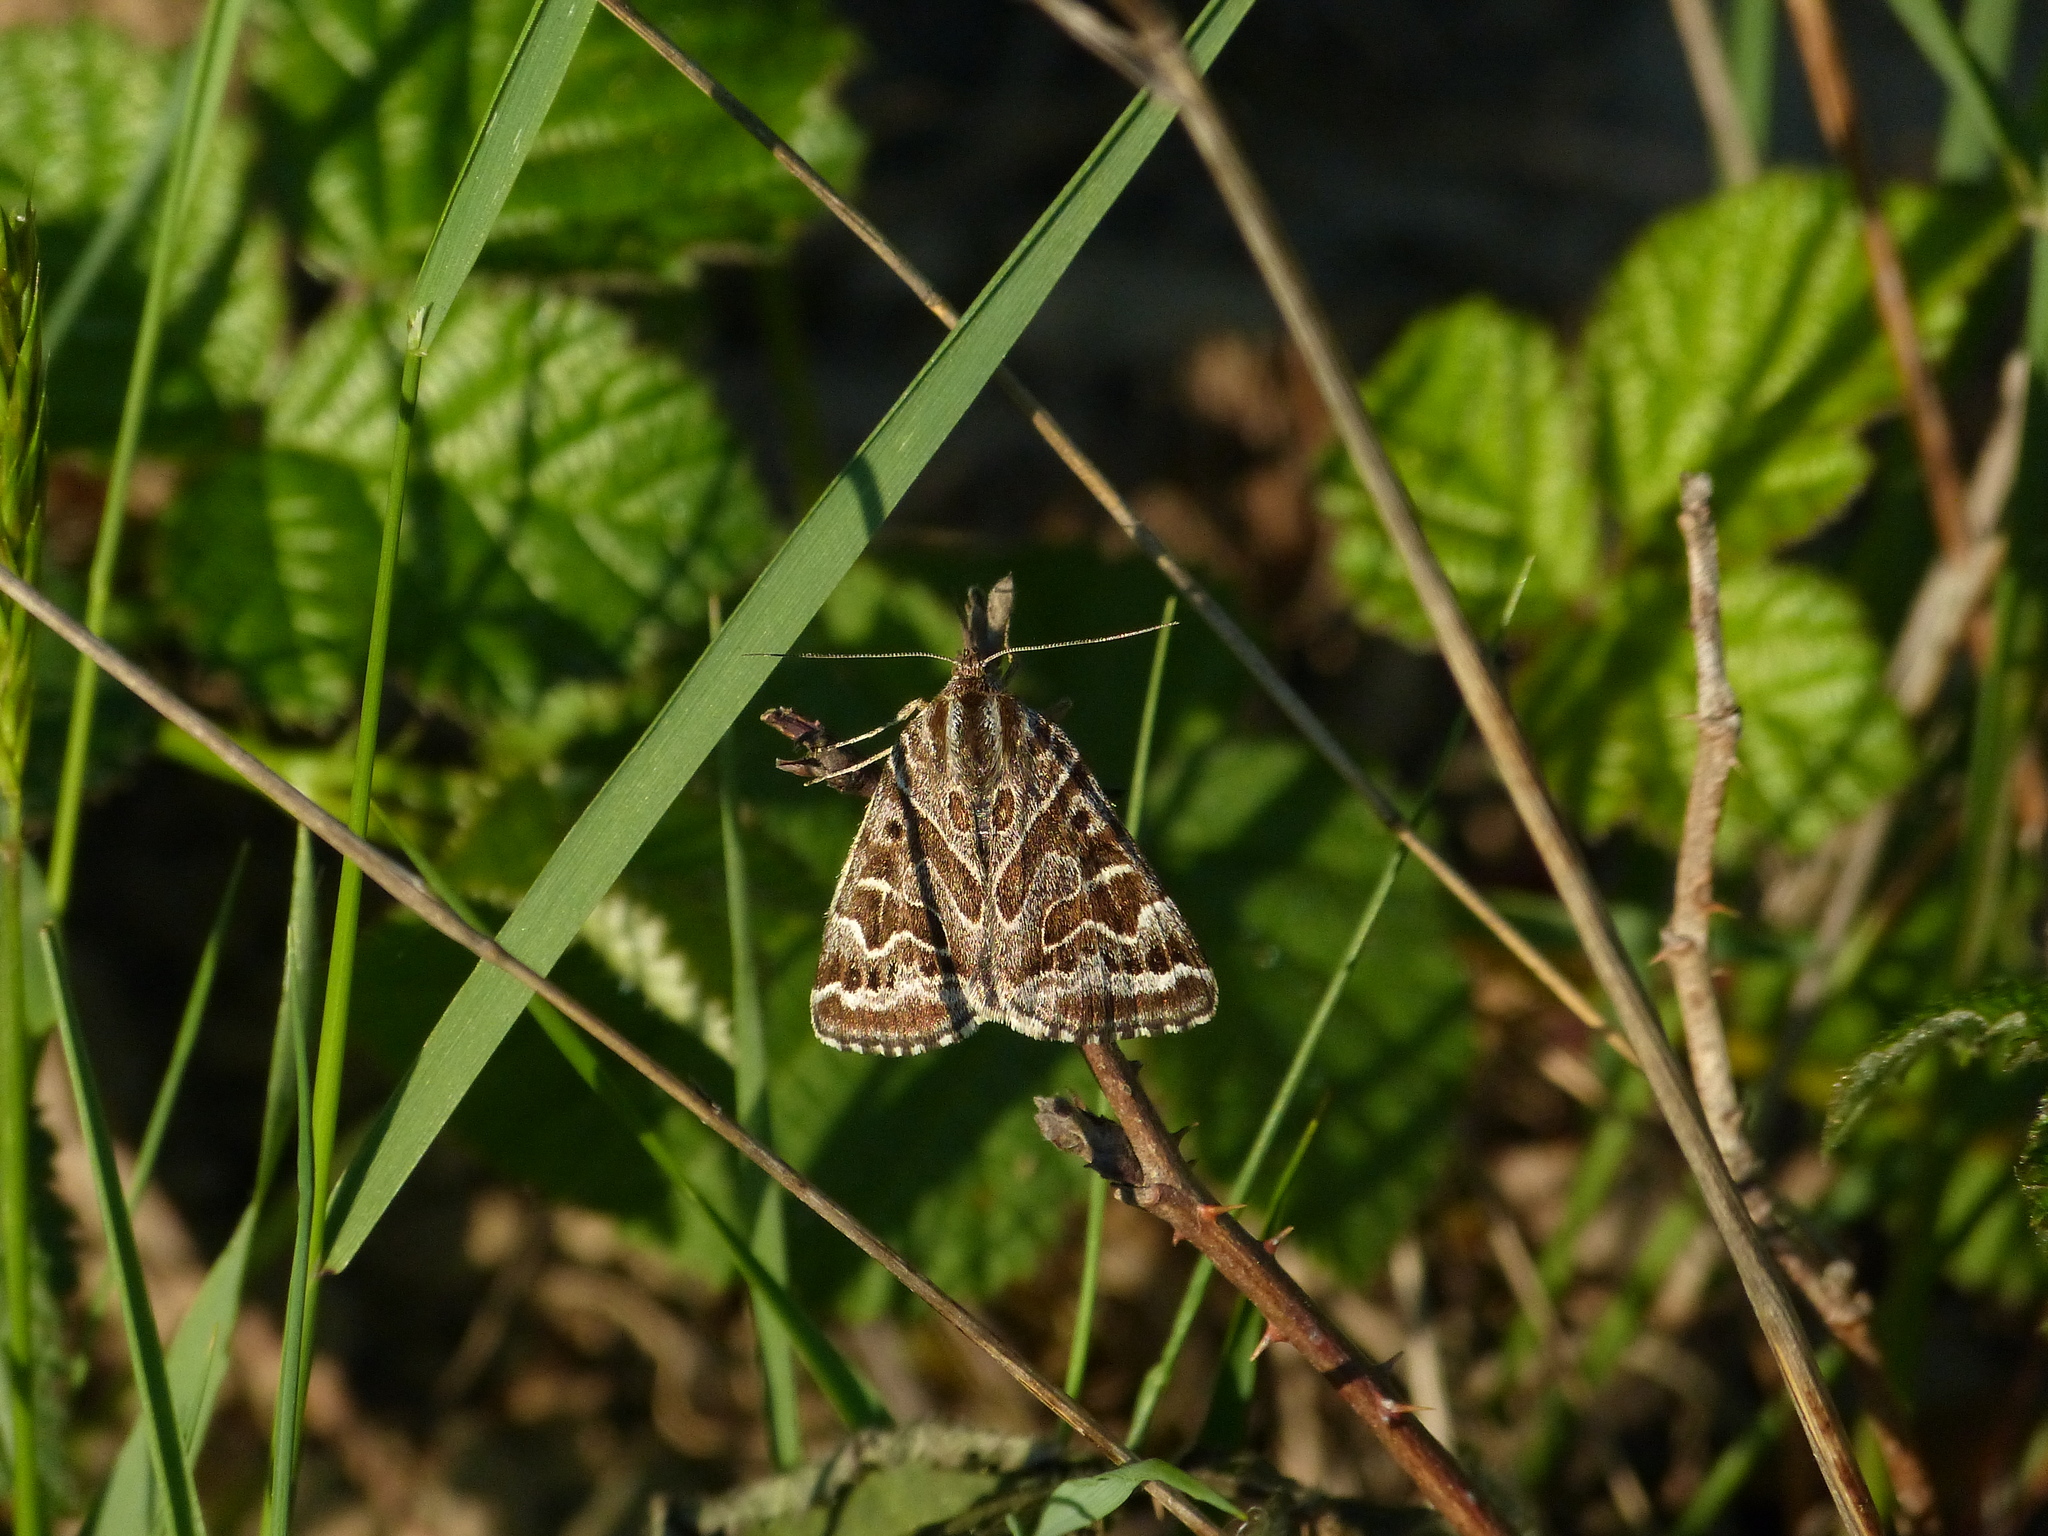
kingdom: Animalia
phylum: Arthropoda
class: Insecta
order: Lepidoptera
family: Erebidae
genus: Callistege
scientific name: Callistege mi
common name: Mother shipton
